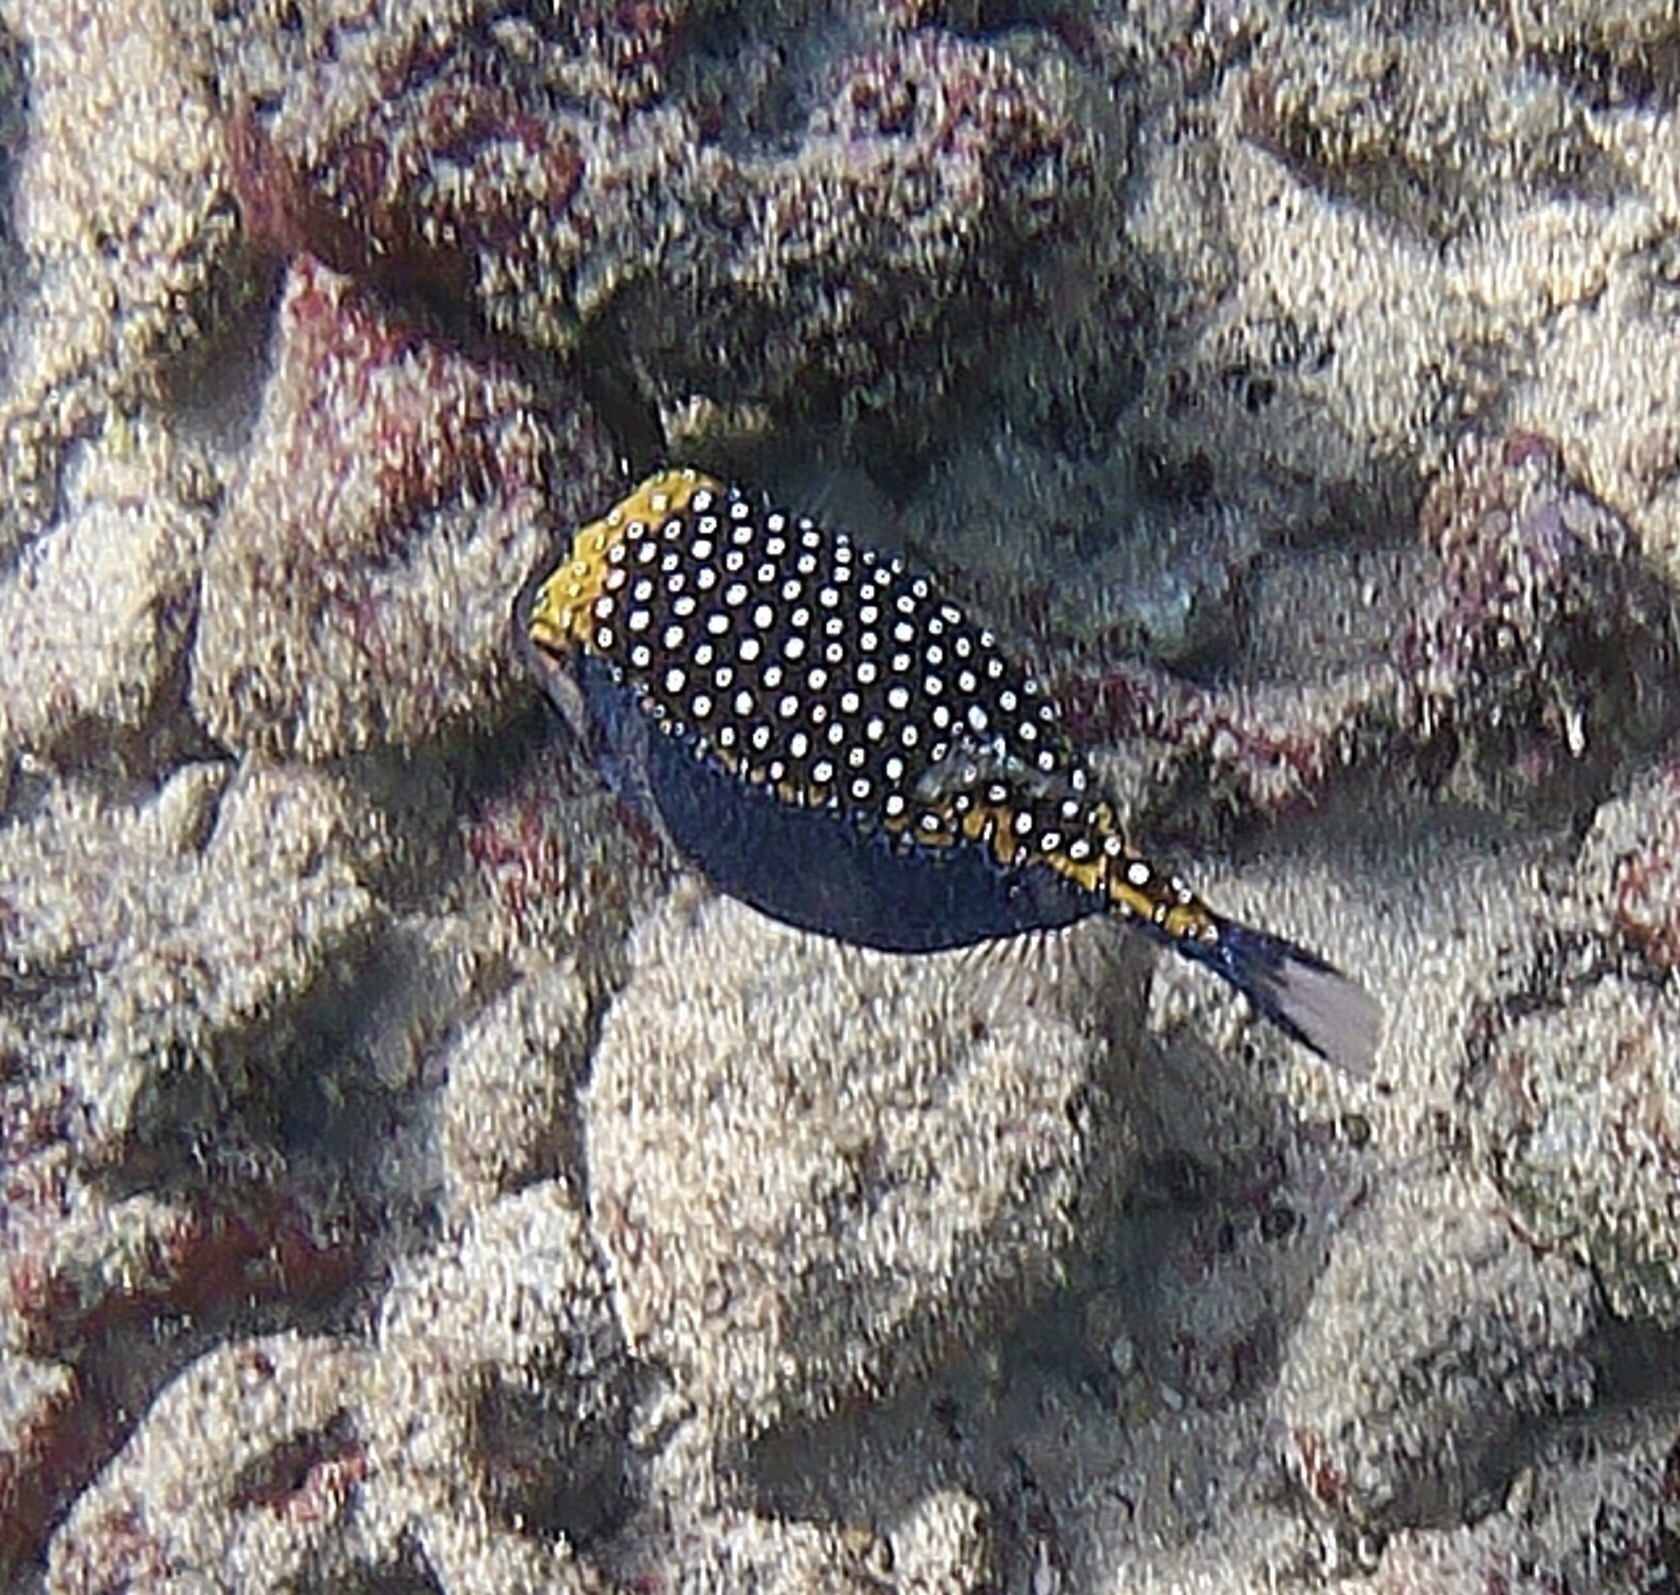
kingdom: Animalia
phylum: Chordata
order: Tetraodontiformes
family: Ostraciidae
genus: Ostracion
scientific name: Ostracion meleagris
